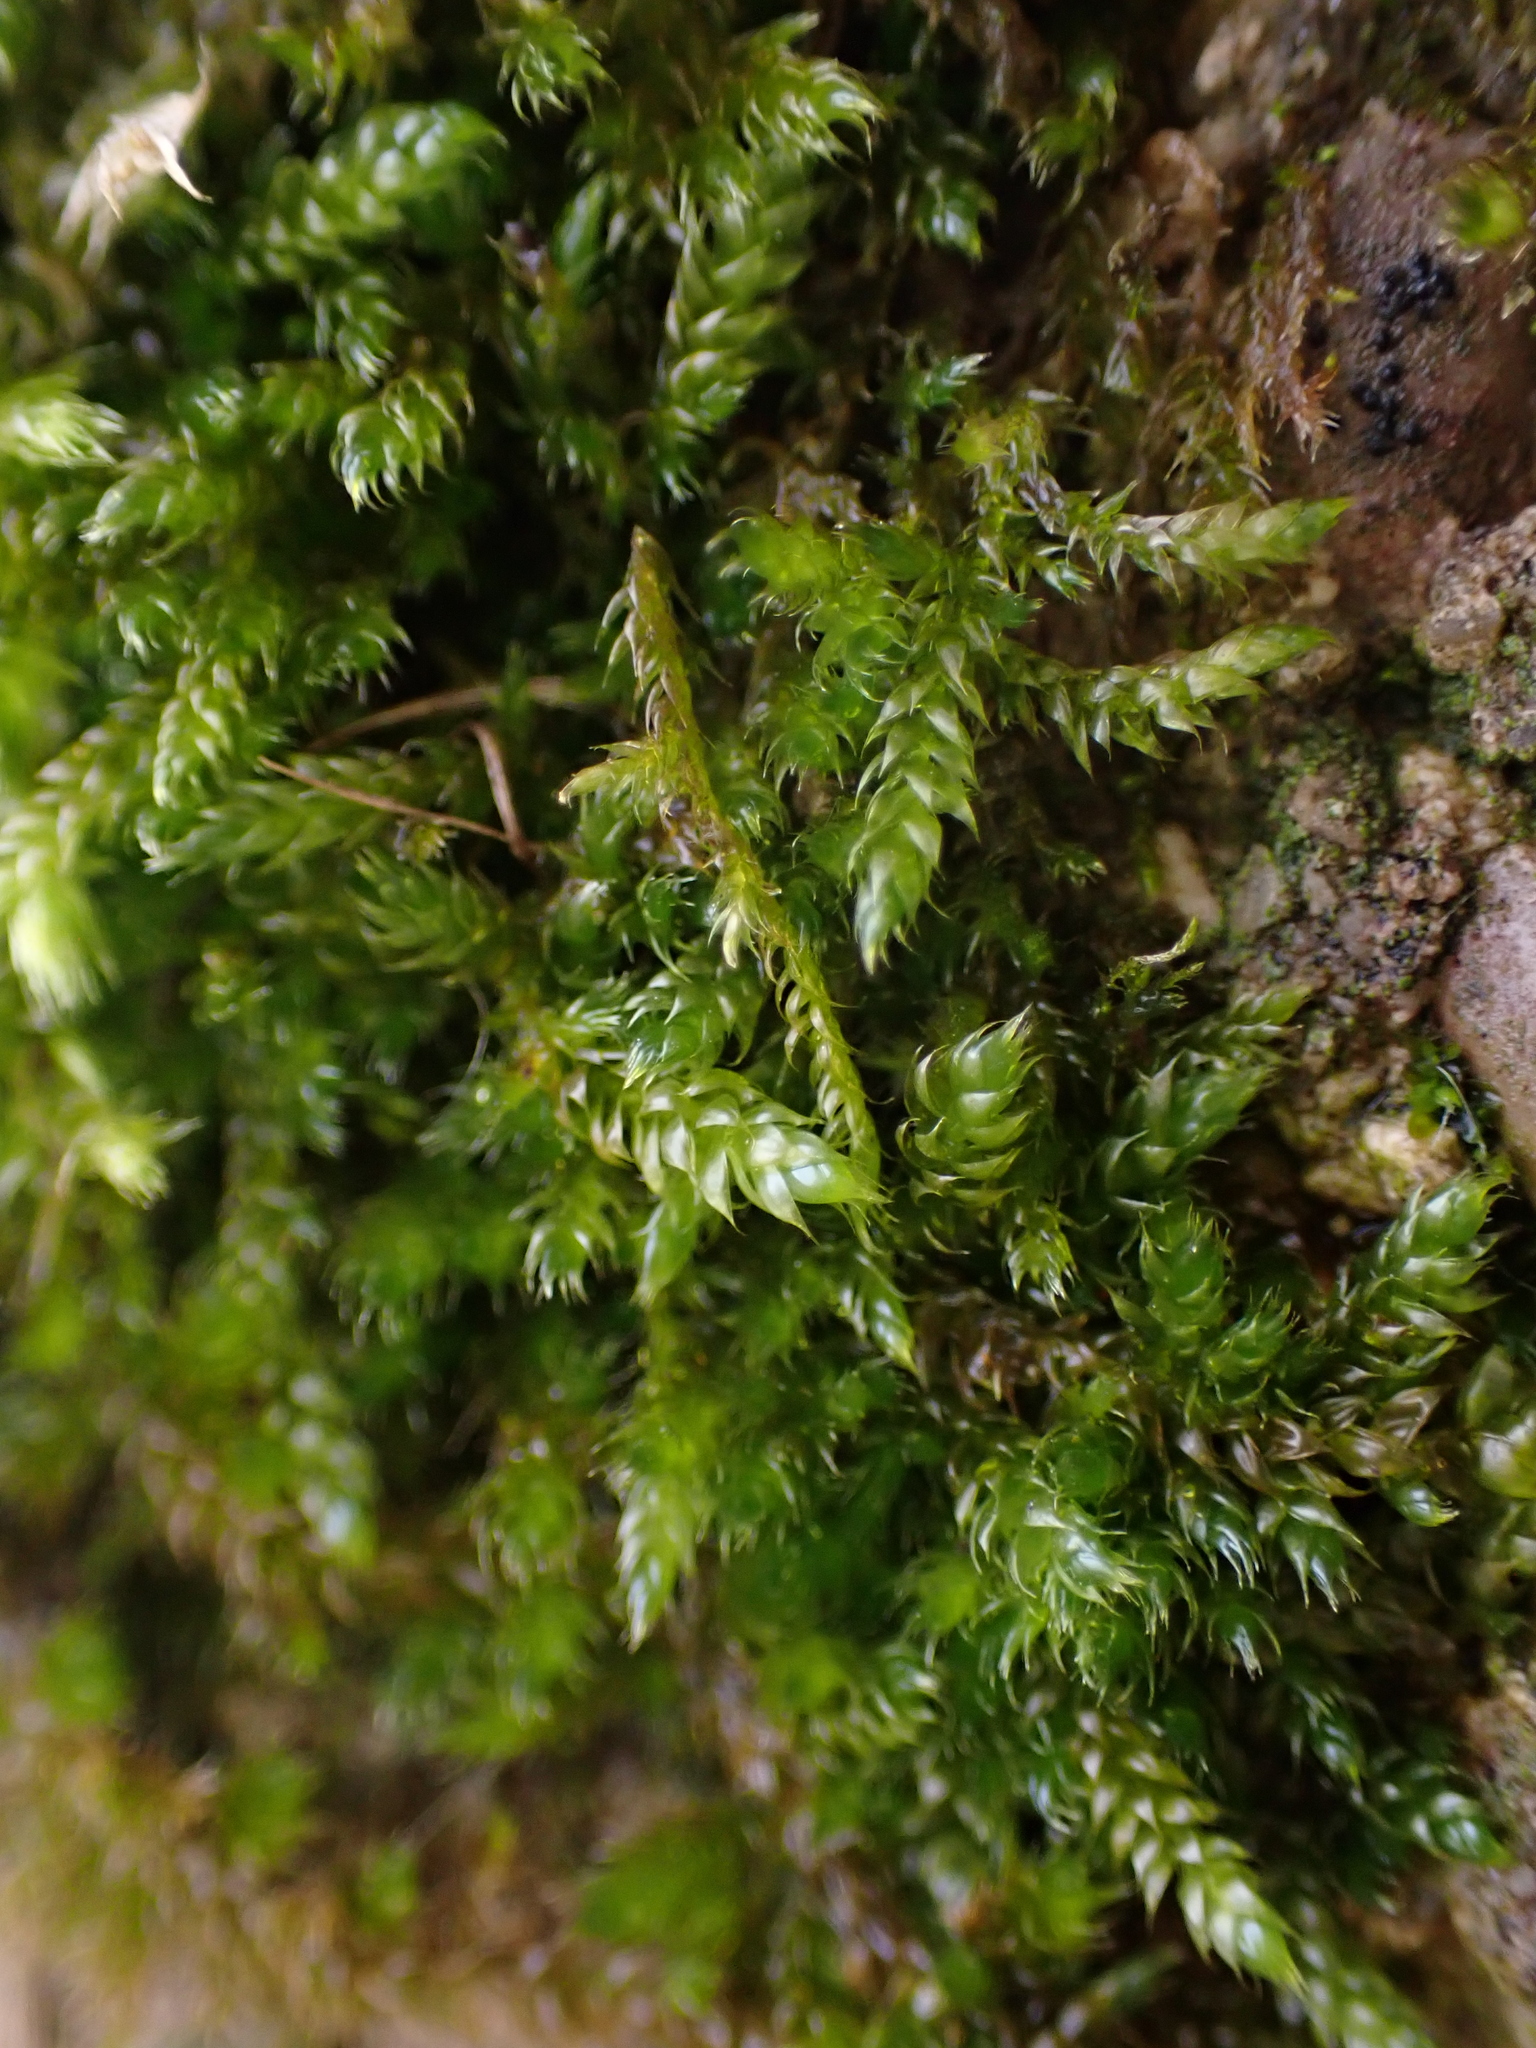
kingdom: Plantae
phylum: Bryophyta
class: Bryopsida
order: Hypnales
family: Hypnaceae
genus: Hypnum
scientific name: Hypnum cupressiforme
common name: Cypress-leaved plait-moss
